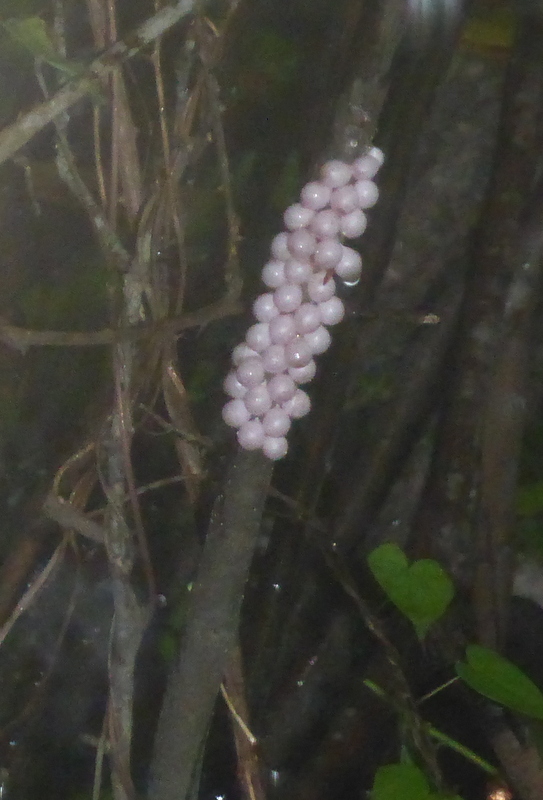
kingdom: Animalia
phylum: Mollusca
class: Gastropoda
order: Architaenioglossa
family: Ampullariidae
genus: Pomacea
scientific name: Pomacea paludosa
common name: Florida applesnail
